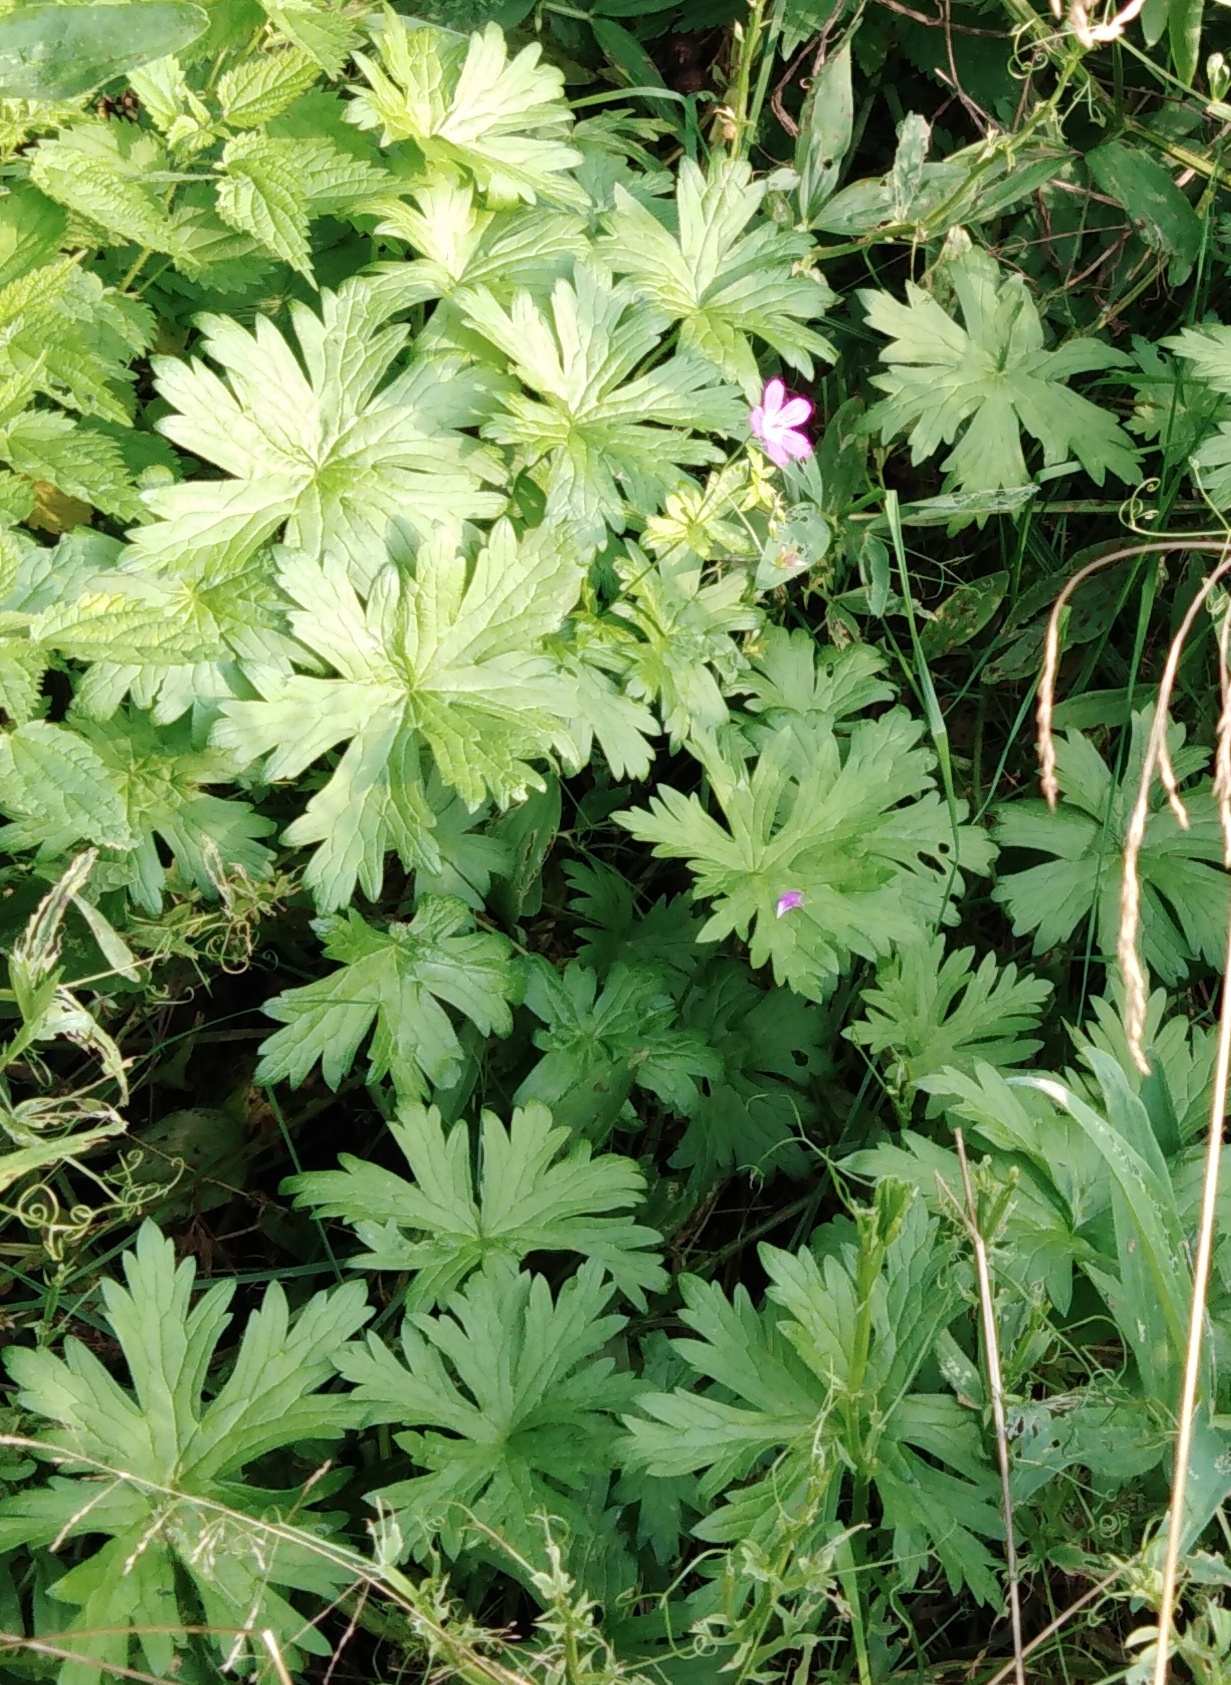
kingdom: Plantae
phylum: Tracheophyta
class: Magnoliopsida
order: Geraniales
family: Geraniaceae
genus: Geranium
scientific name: Geranium palustre
